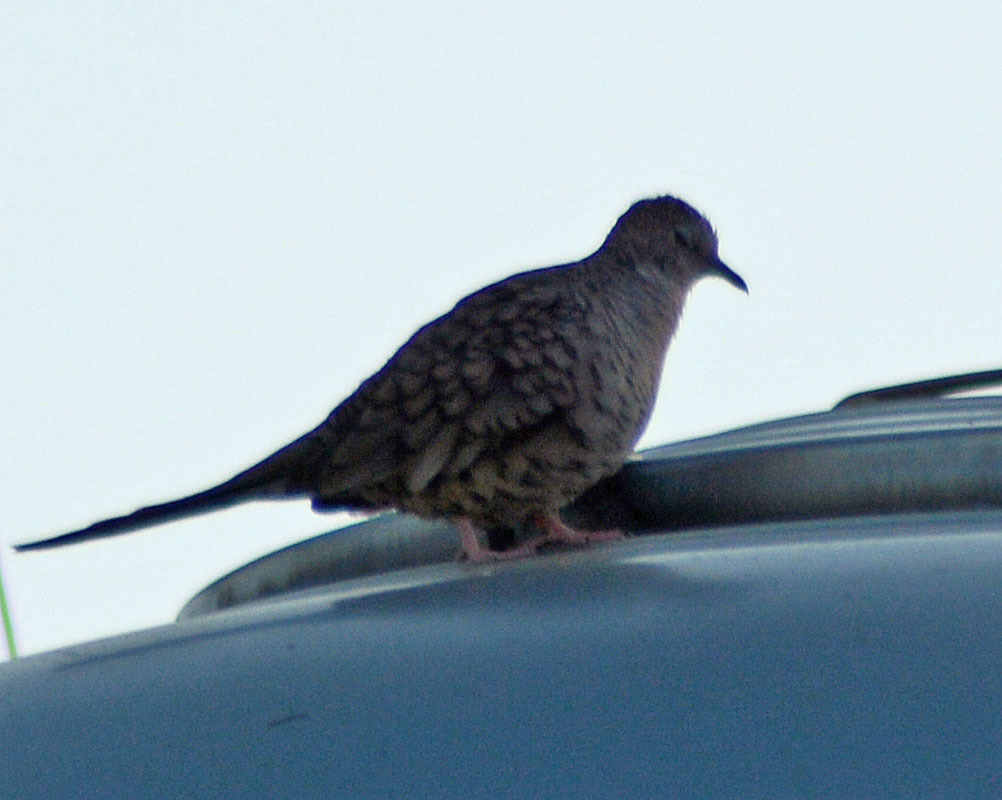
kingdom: Animalia
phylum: Chordata
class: Aves
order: Columbiformes
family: Columbidae
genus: Columbina
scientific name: Columbina inca
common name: Inca dove
